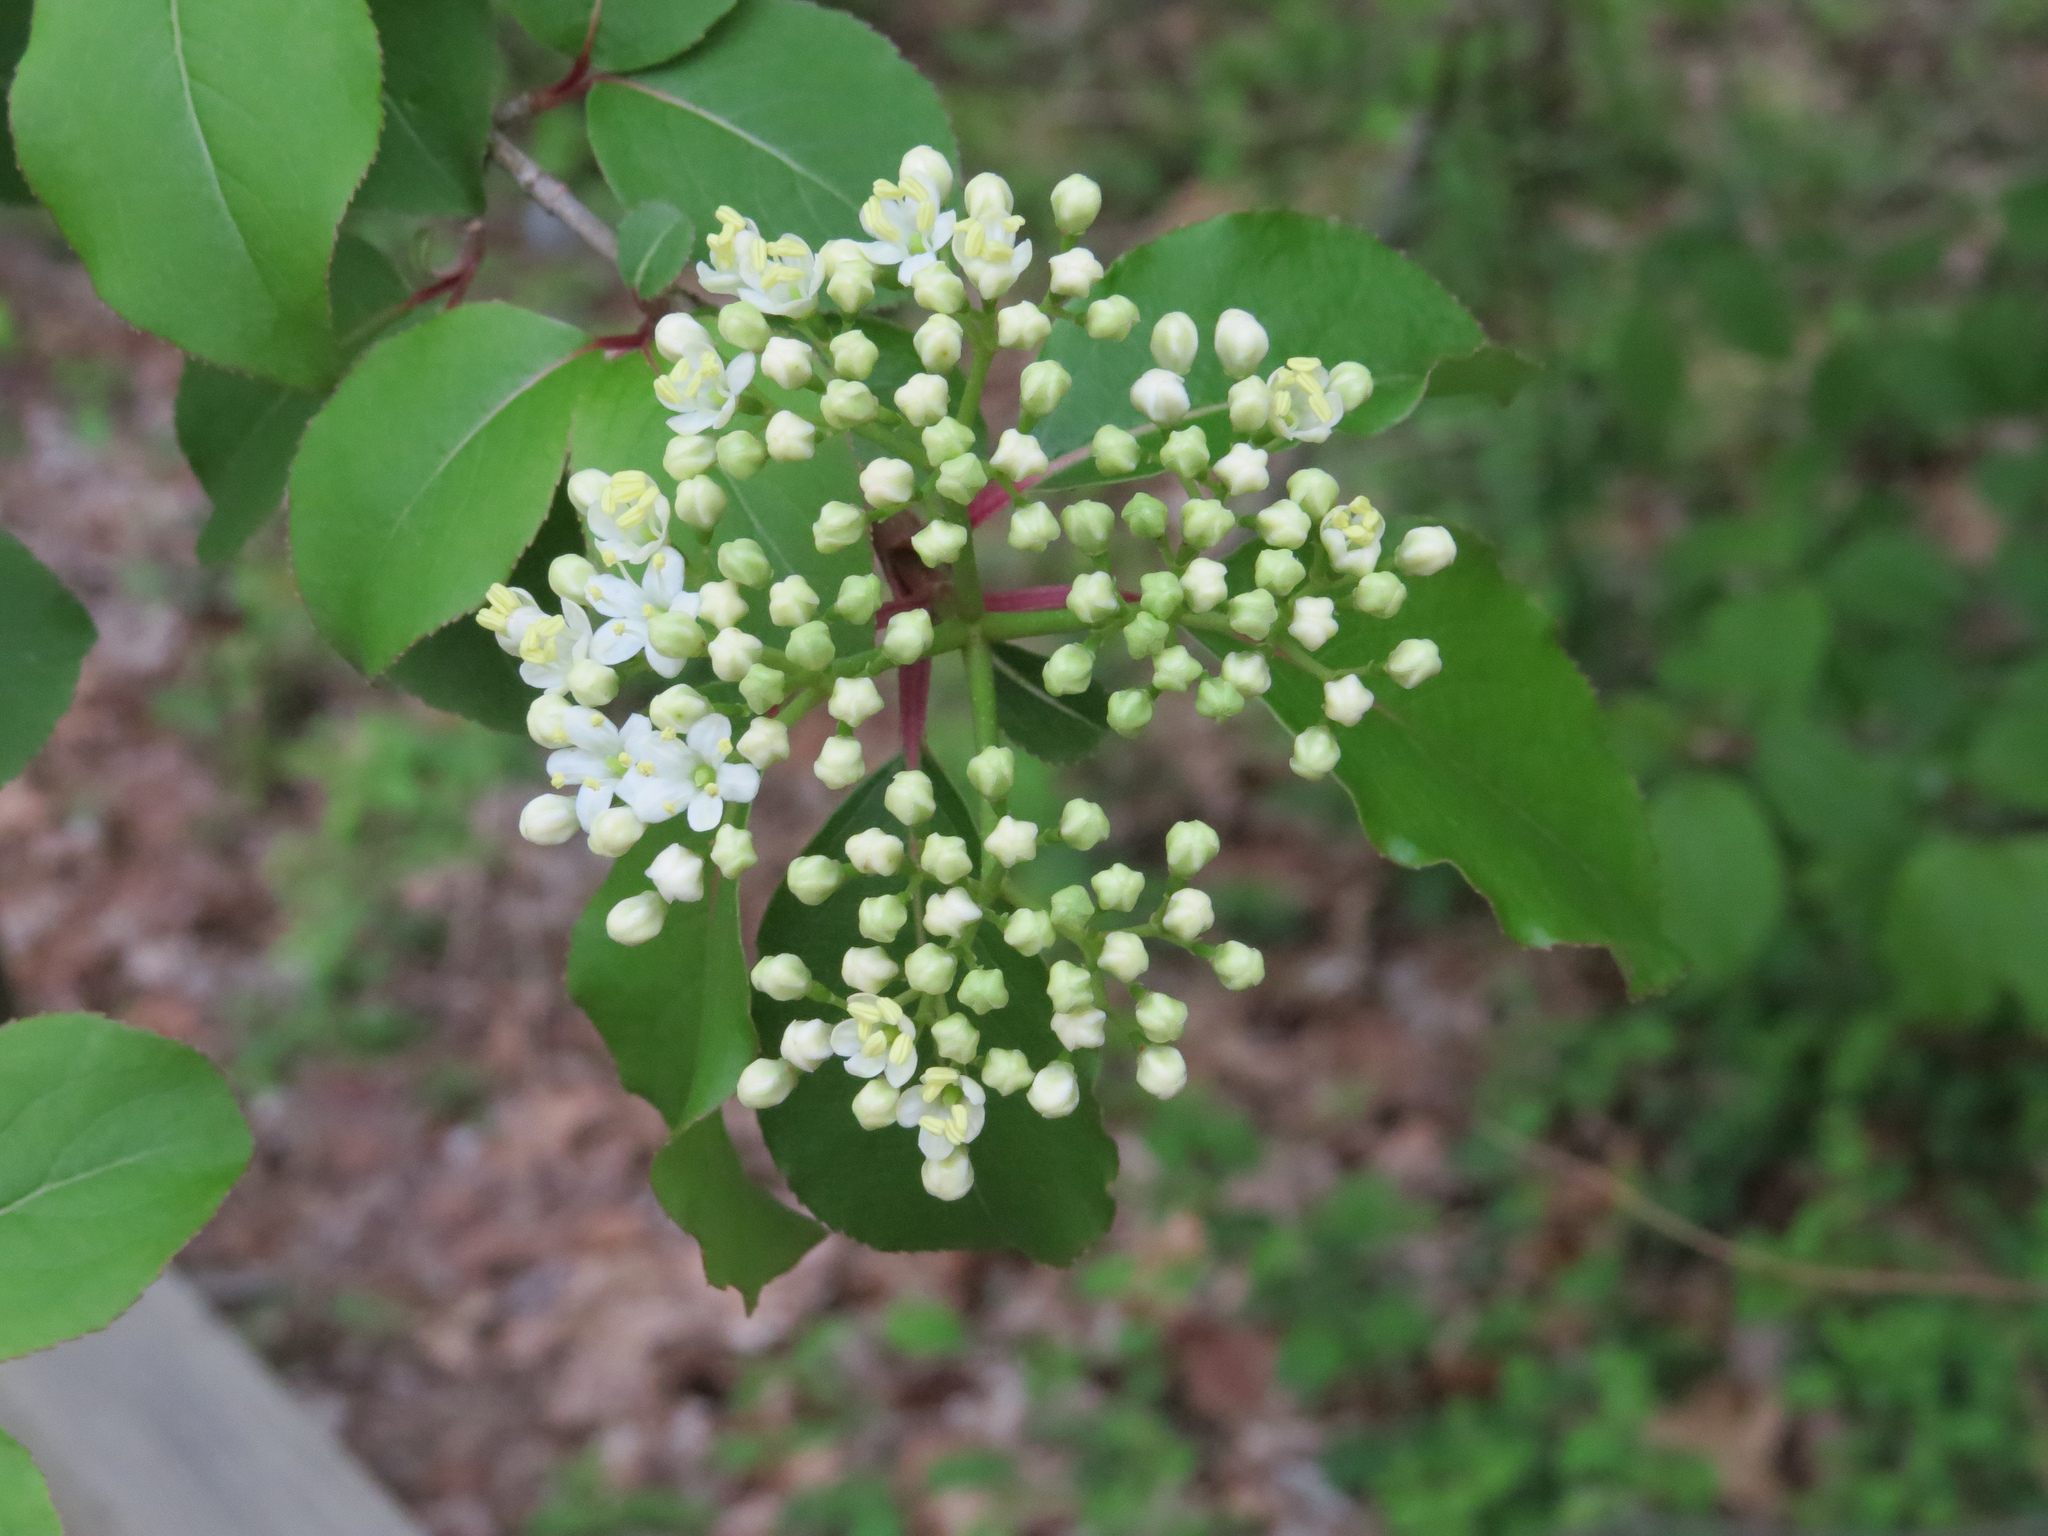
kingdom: Plantae
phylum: Tracheophyta
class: Magnoliopsida
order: Dipsacales
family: Viburnaceae
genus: Viburnum
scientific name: Viburnum prunifolium
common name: Black haw
